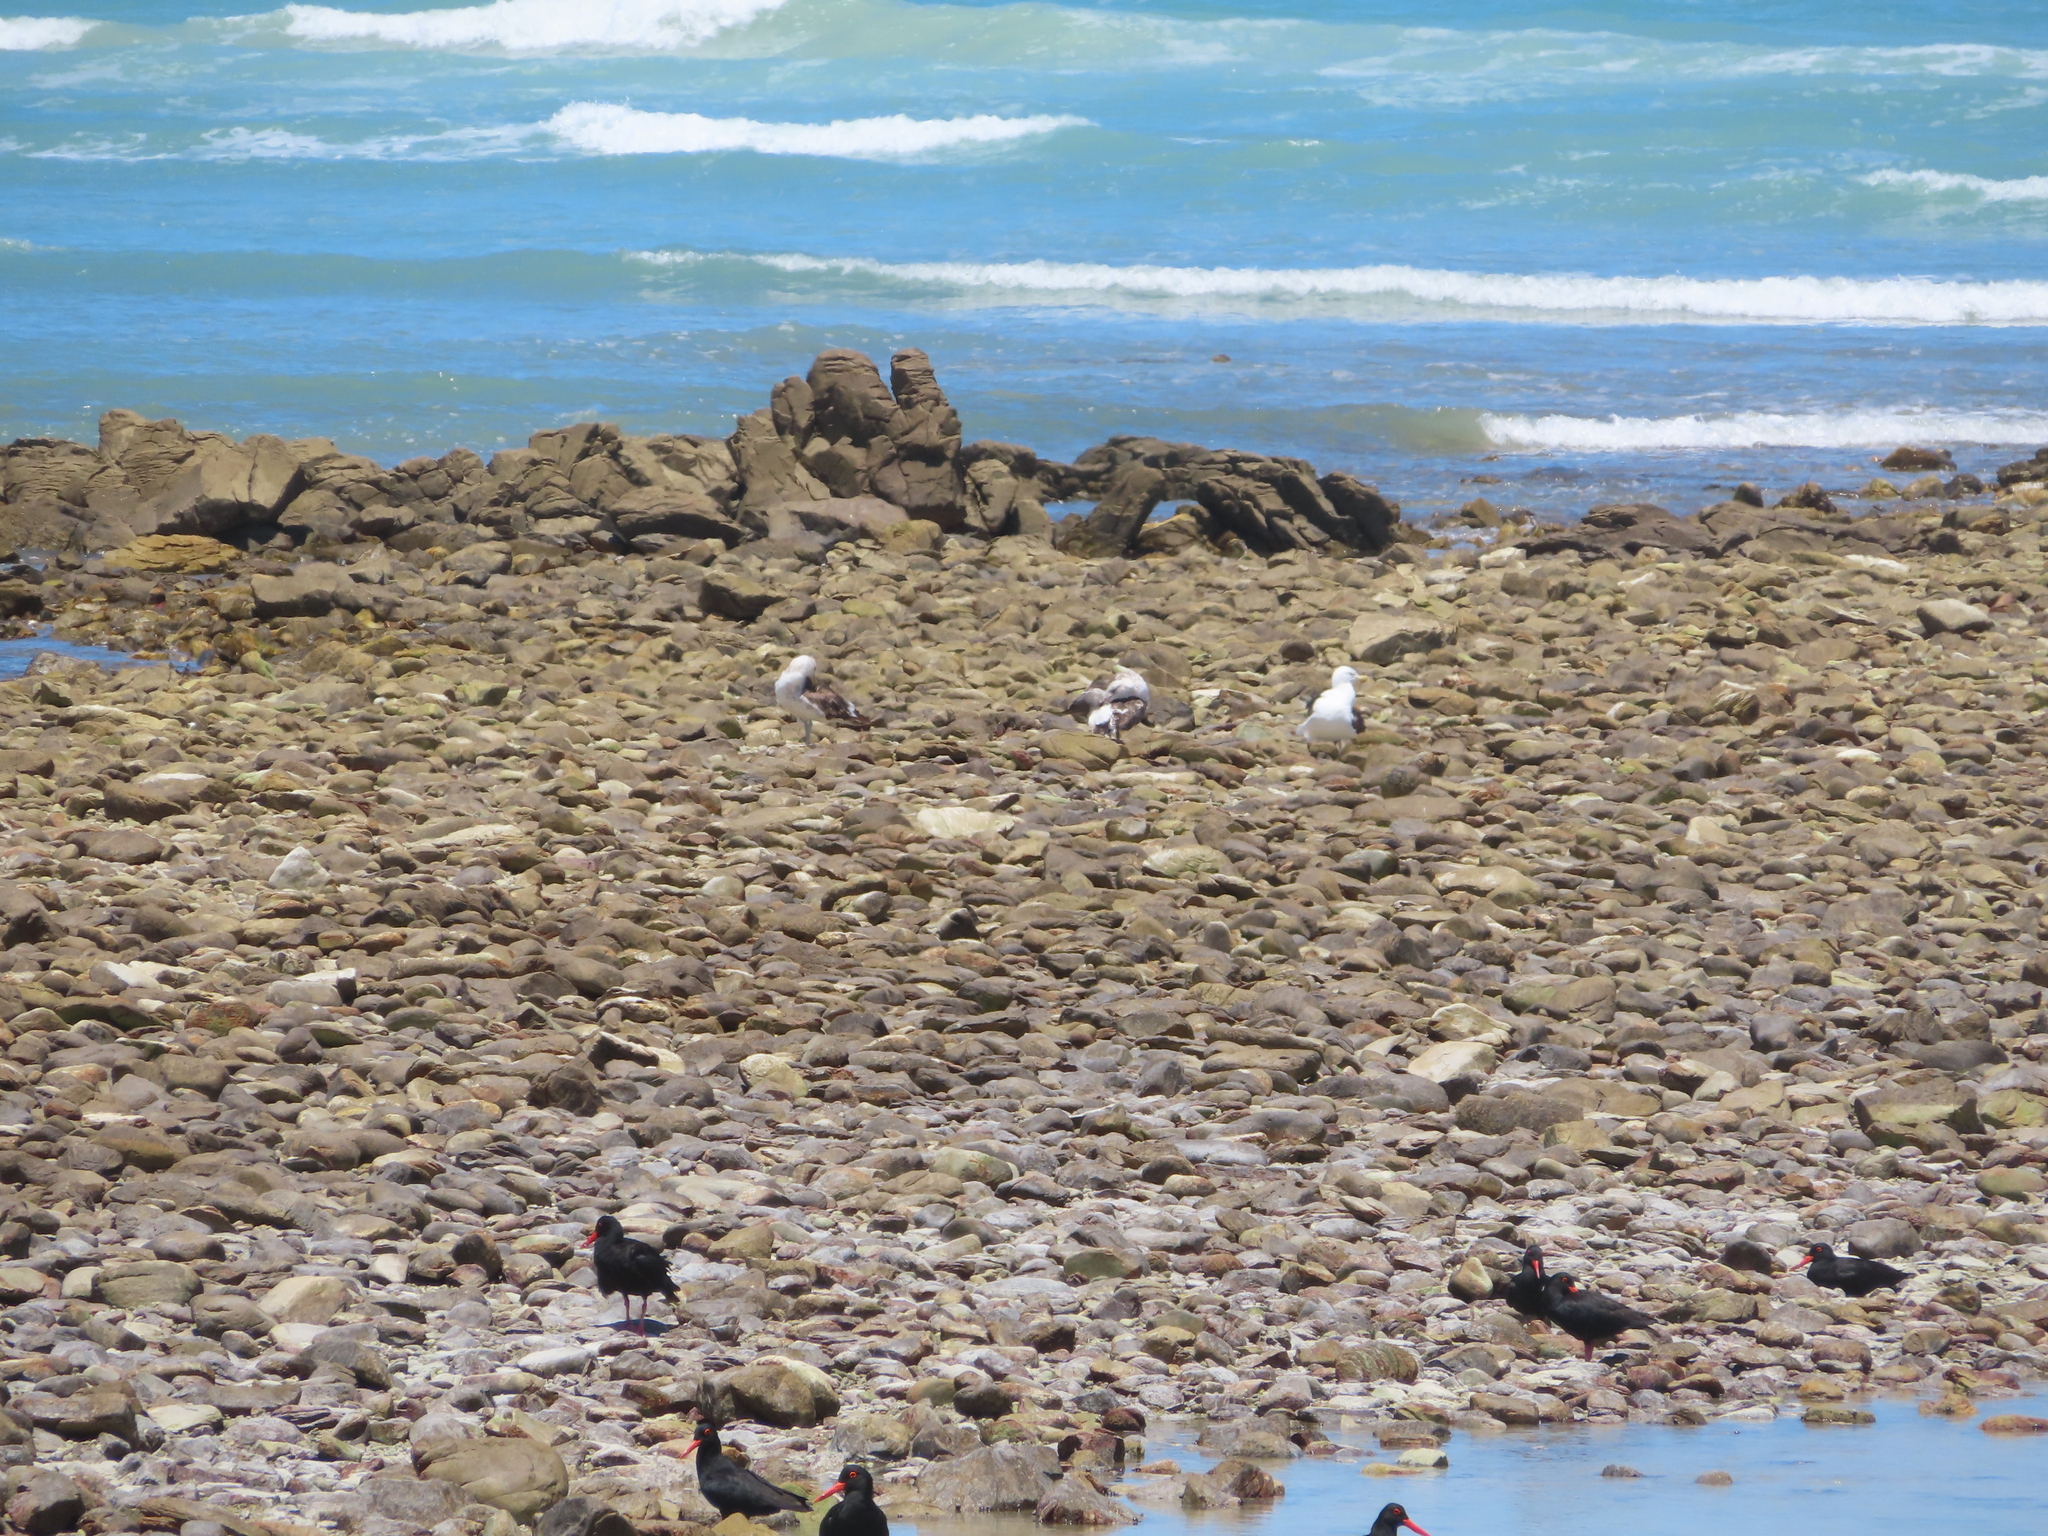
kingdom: Animalia
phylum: Chordata
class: Aves
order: Charadriiformes
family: Laridae
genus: Chroicocephalus
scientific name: Chroicocephalus hartlaubii
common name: Hartlaub's gull
